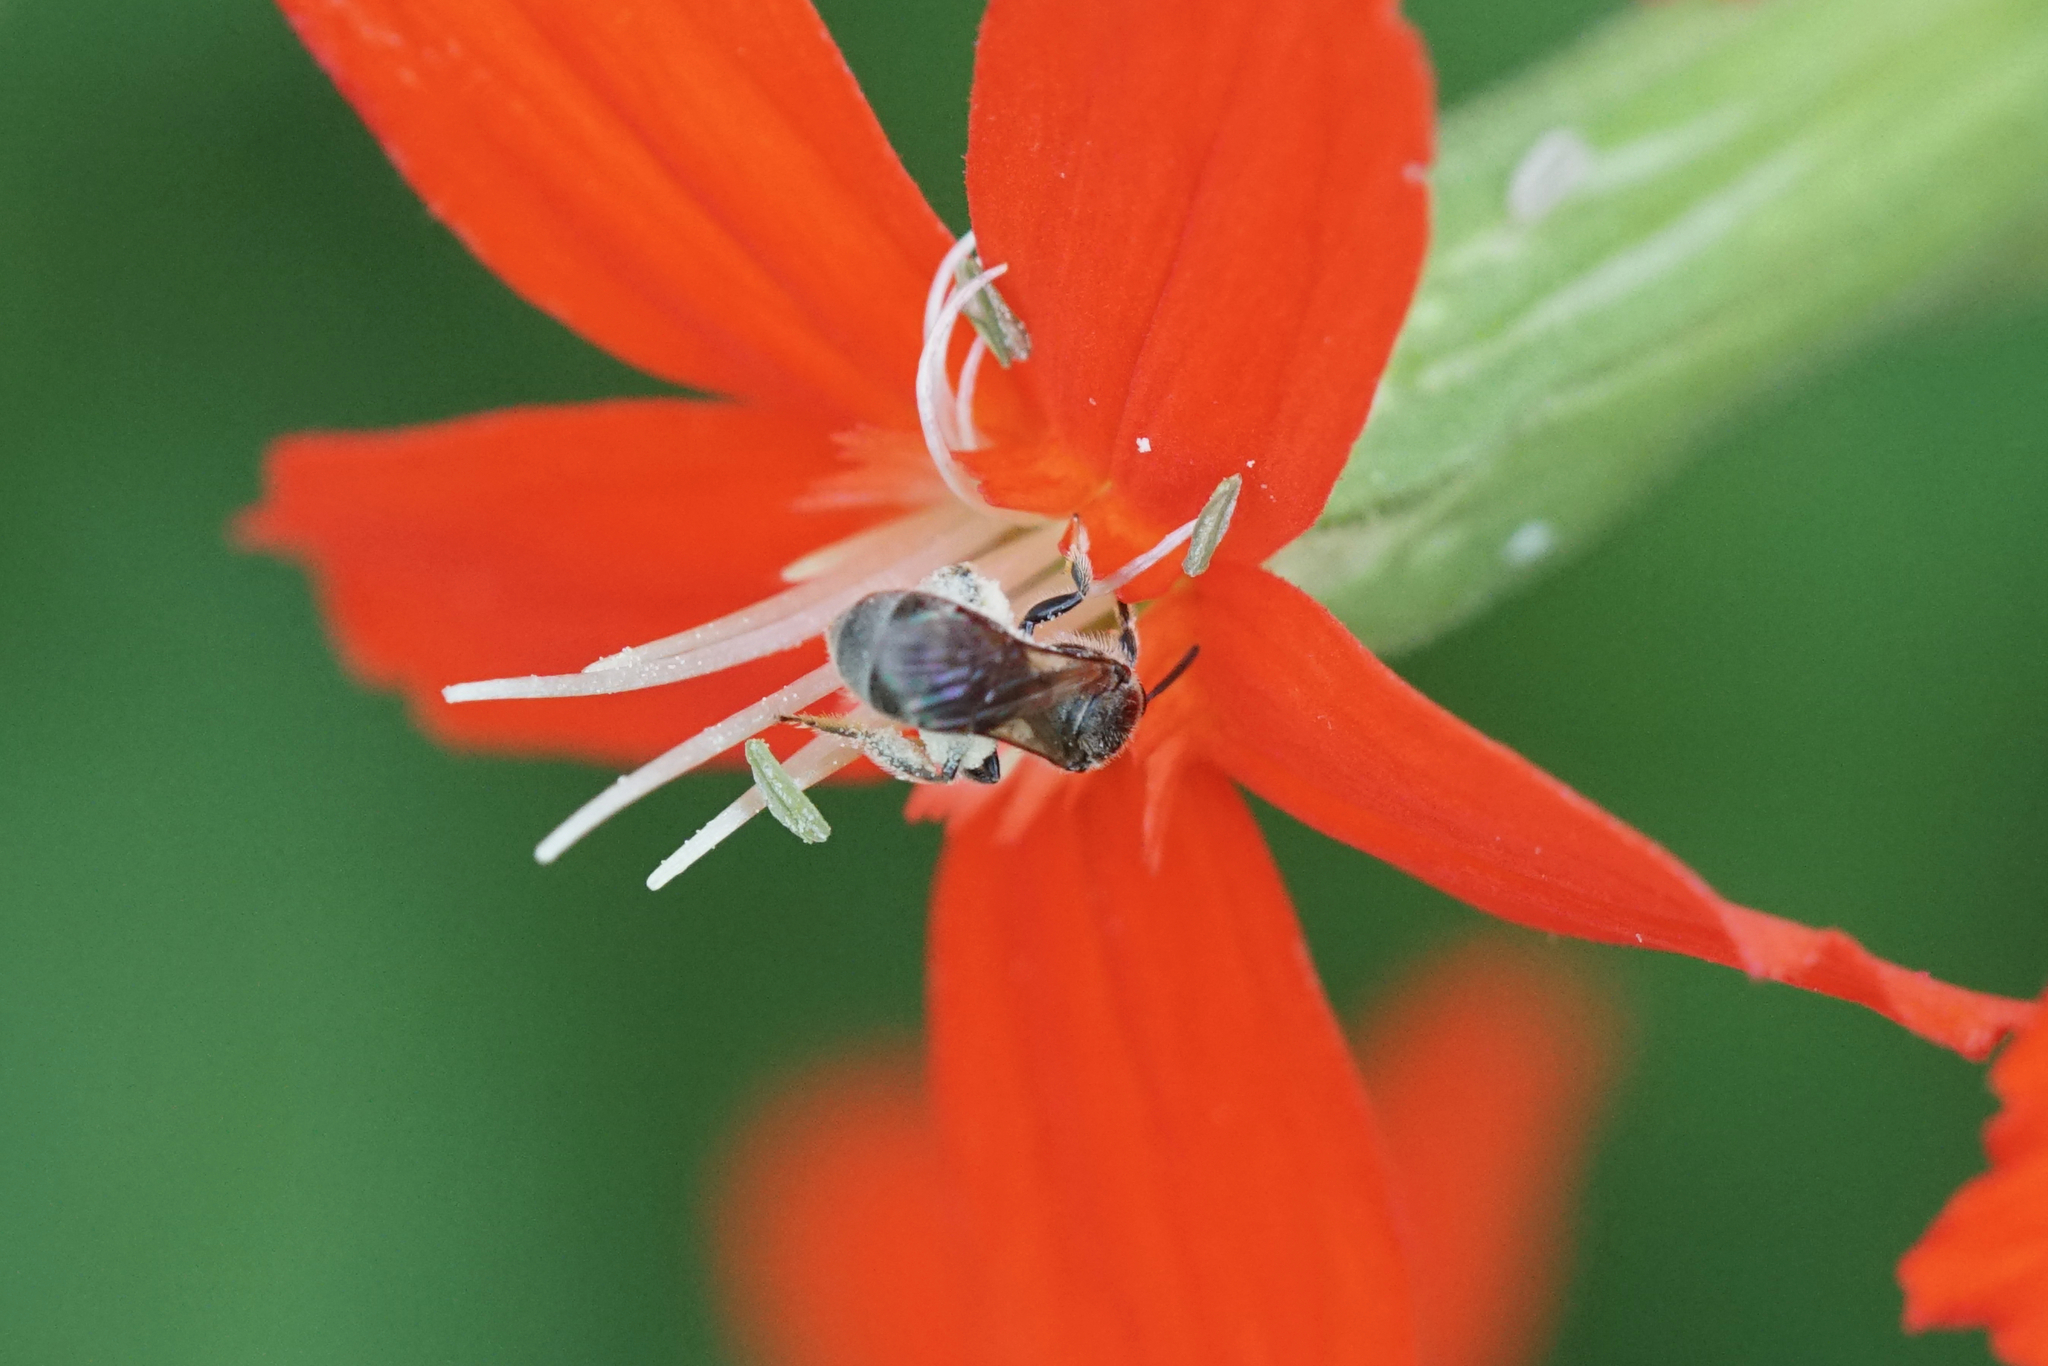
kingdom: Animalia
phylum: Arthropoda
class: Insecta
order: Hymenoptera
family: Halictidae
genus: Dialictus
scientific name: Dialictus
